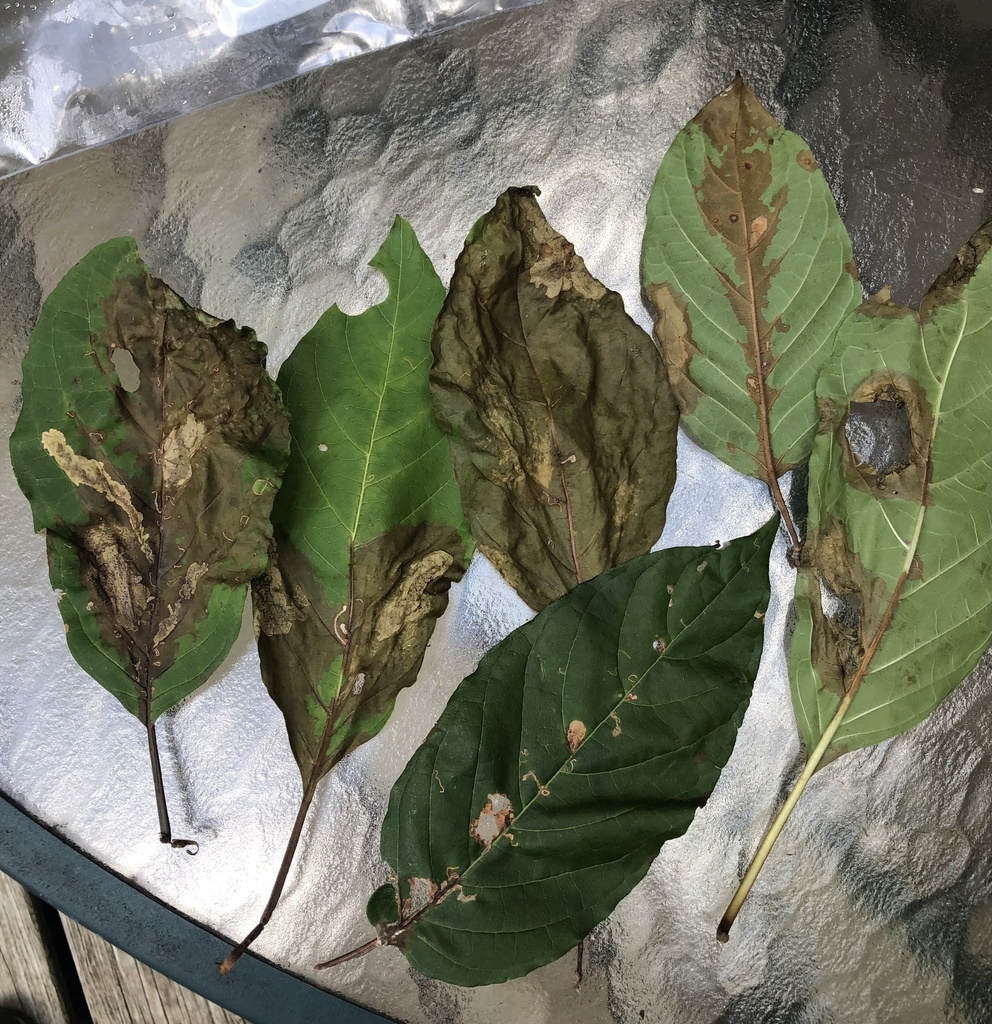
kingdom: Animalia
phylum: Arthropoda
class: Insecta
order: Lepidoptera
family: Momphidae
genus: Mompha
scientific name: Mompha solomoni
